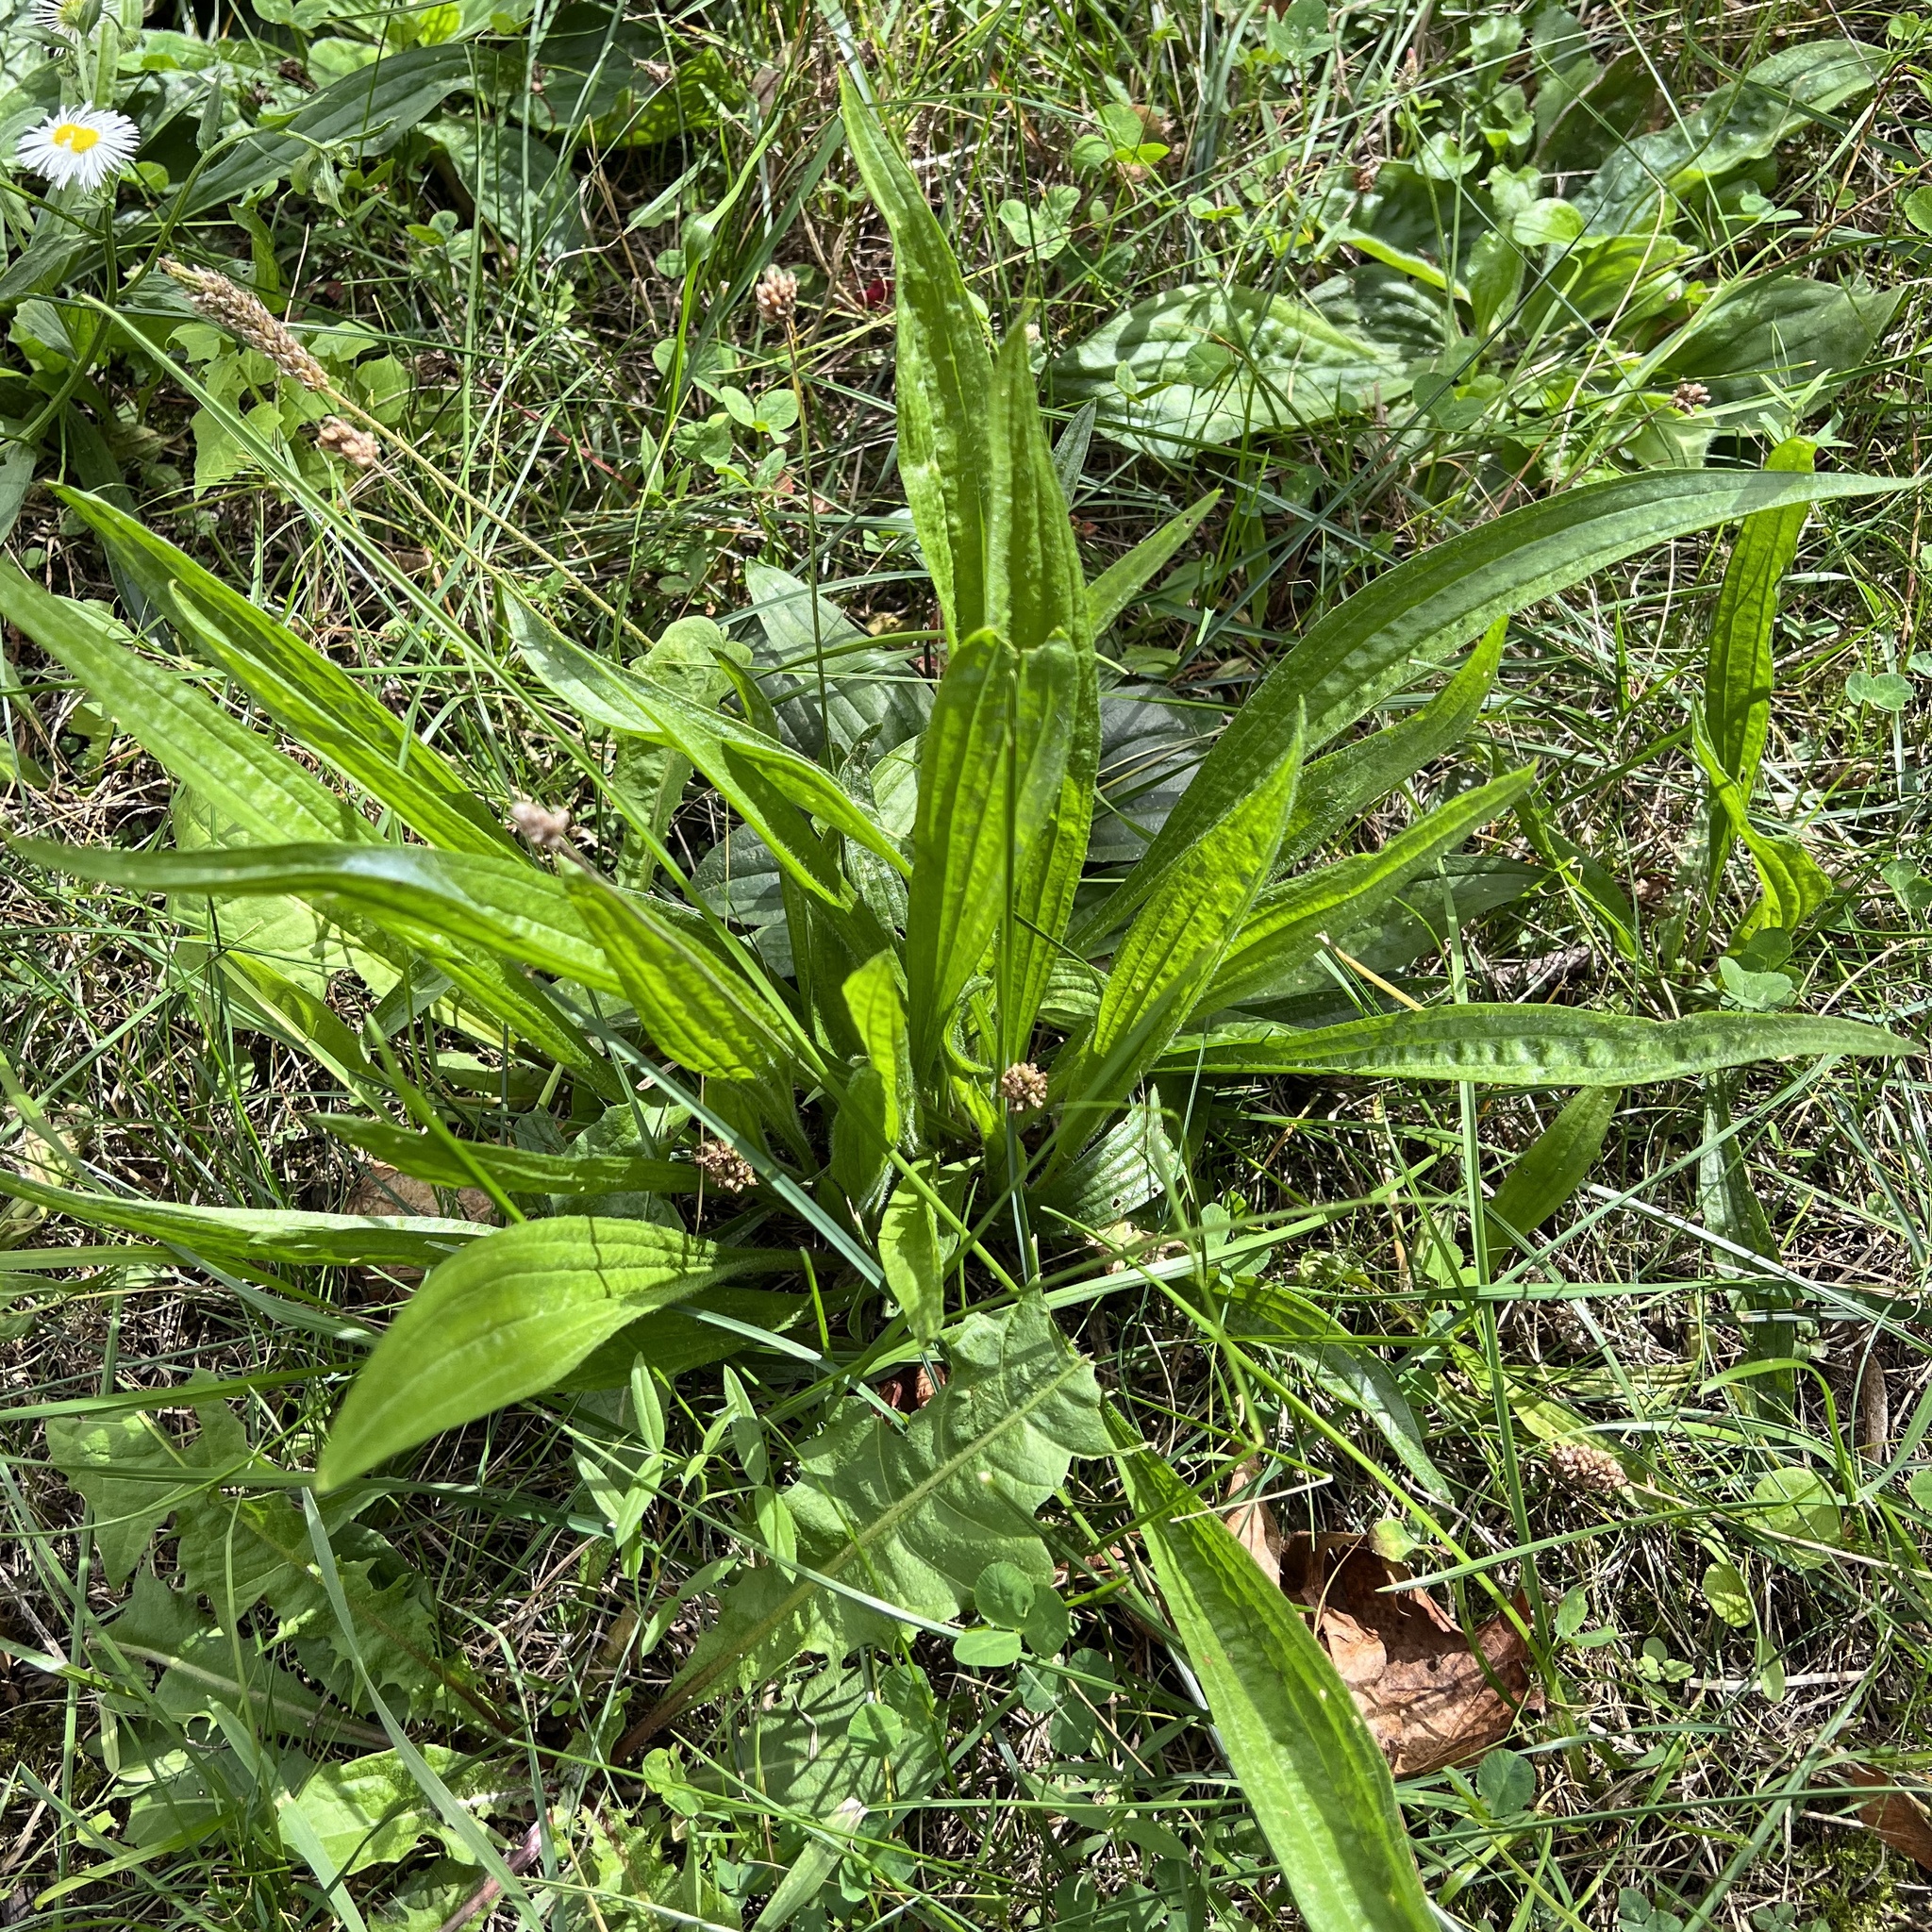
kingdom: Plantae
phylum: Tracheophyta
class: Magnoliopsida
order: Lamiales
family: Plantaginaceae
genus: Plantago
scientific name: Plantago lanceolata
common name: Ribwort plantain
